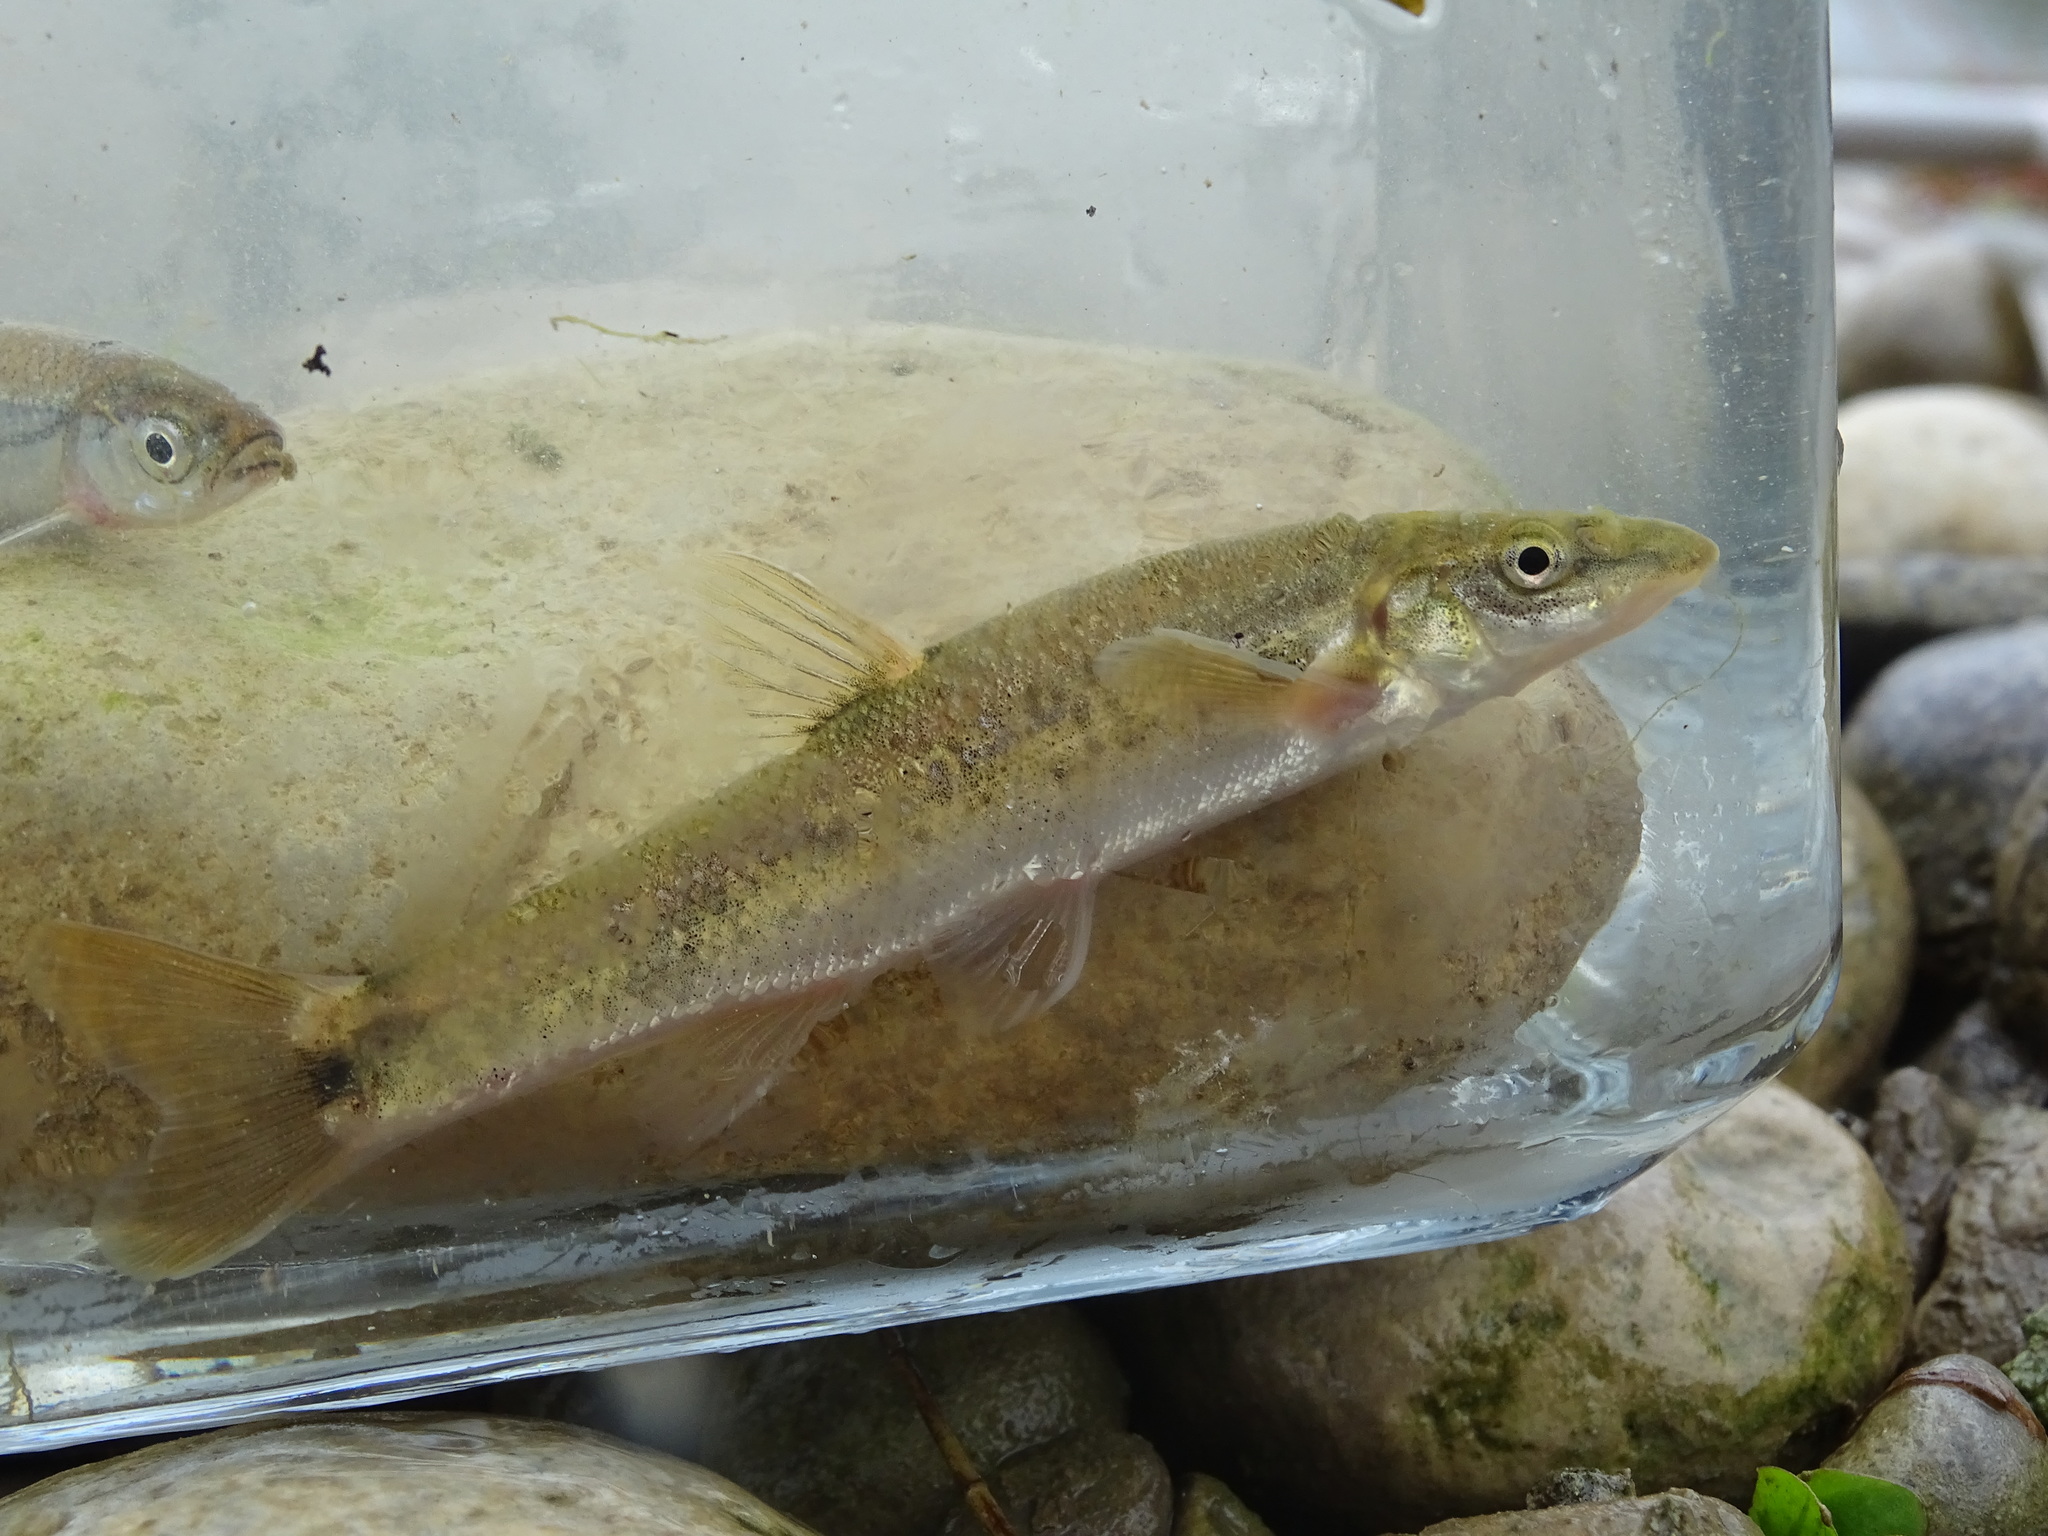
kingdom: Animalia
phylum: Chordata
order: Cypriniformes
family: Cyprinidae
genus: Rhinichthys
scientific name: Rhinichthys cataractae
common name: Longnose dace
